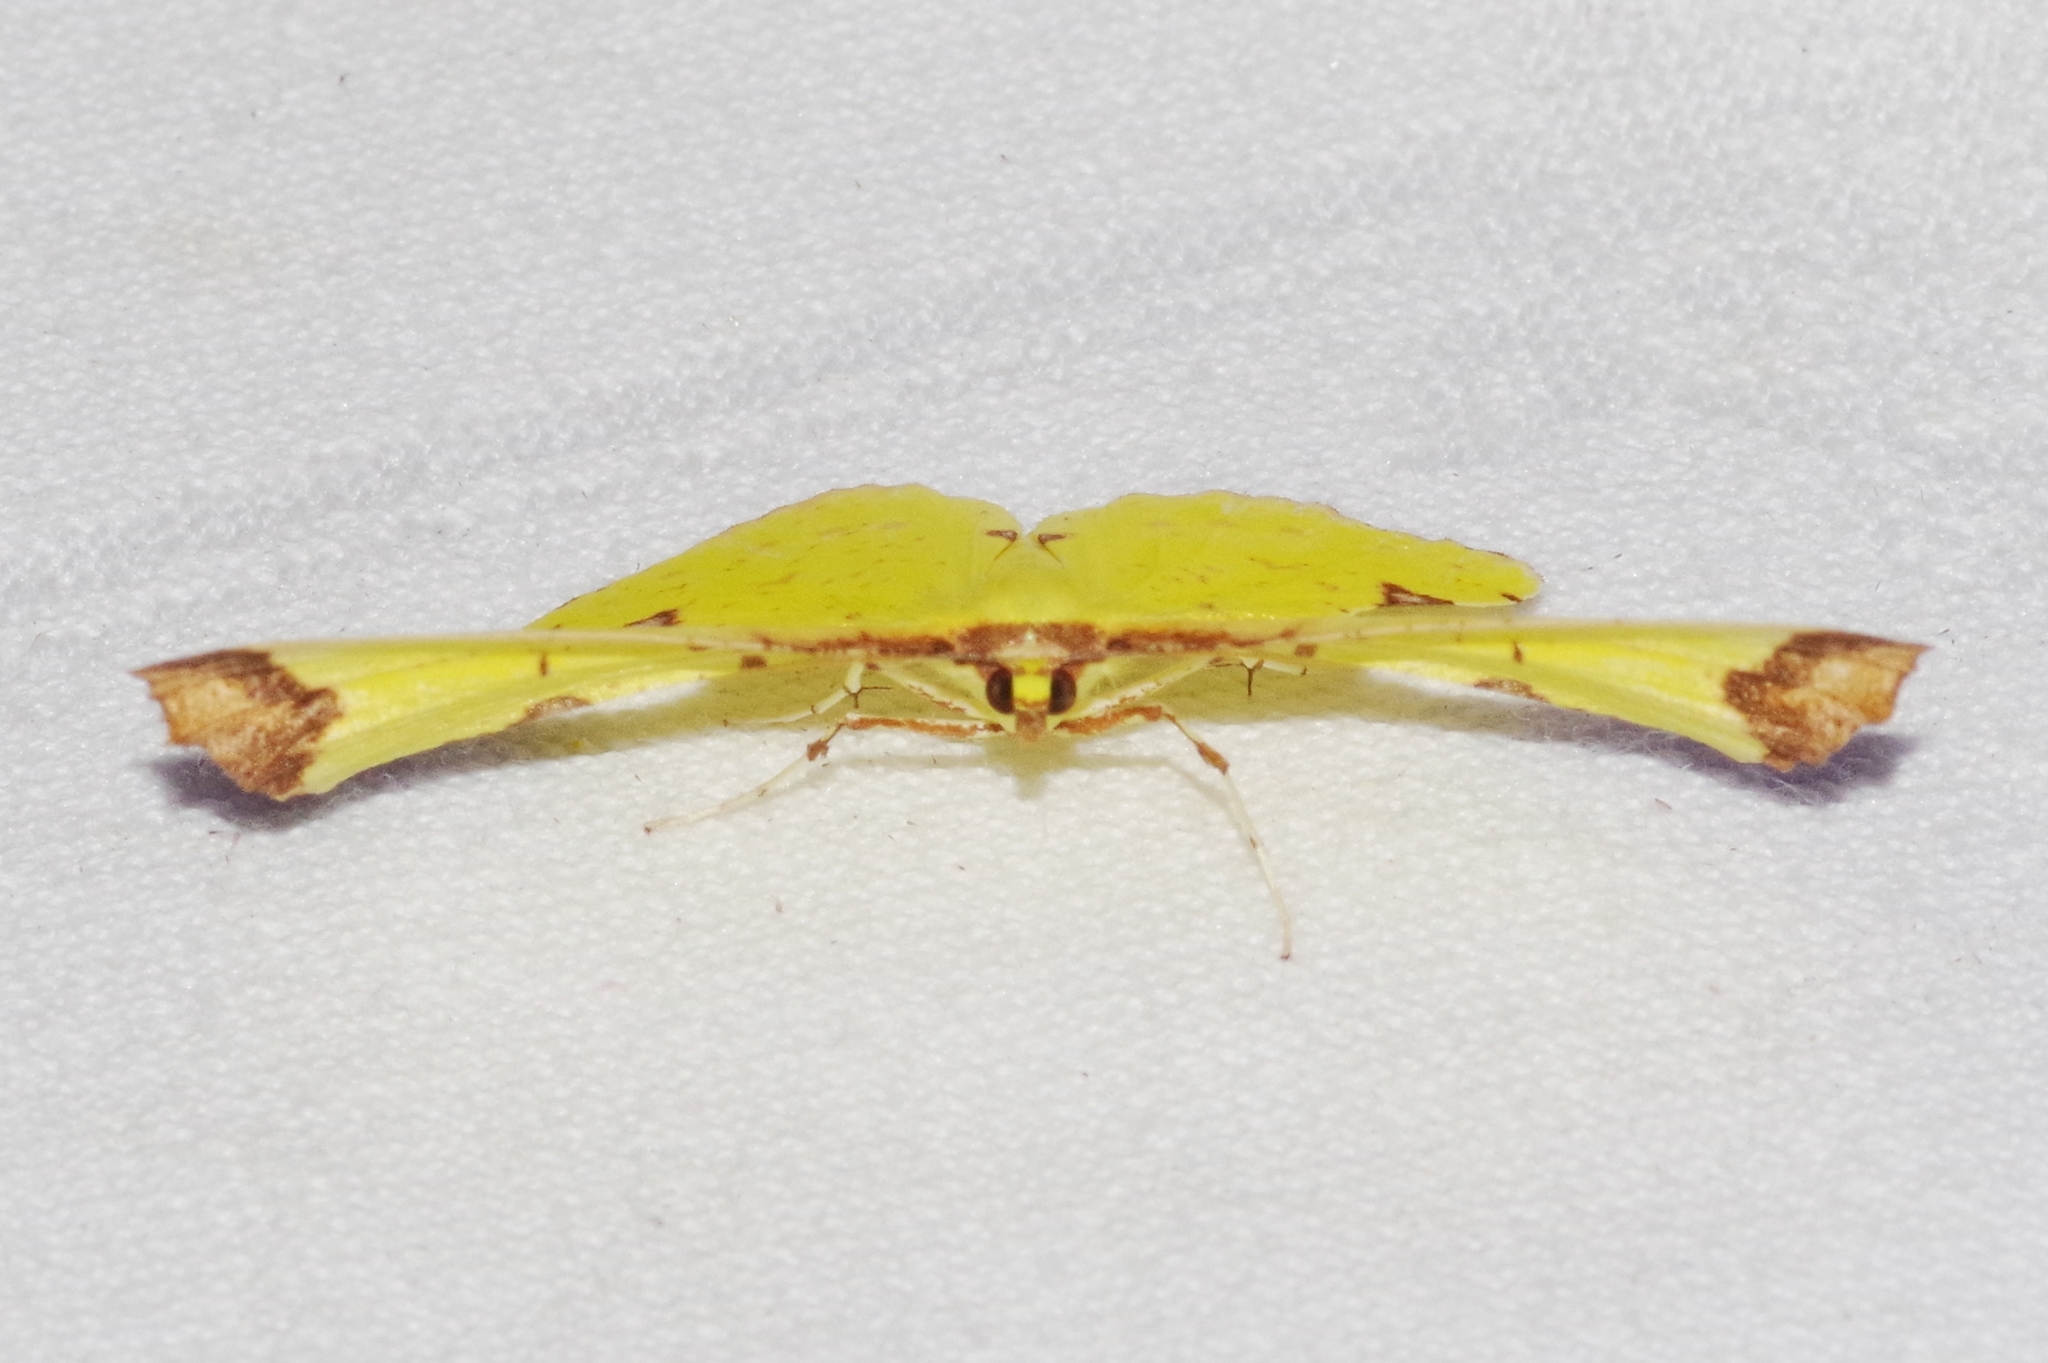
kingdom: Animalia
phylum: Arthropoda
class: Insecta
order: Lepidoptera
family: Geometridae
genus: Corymica
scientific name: Corymica pryeri
